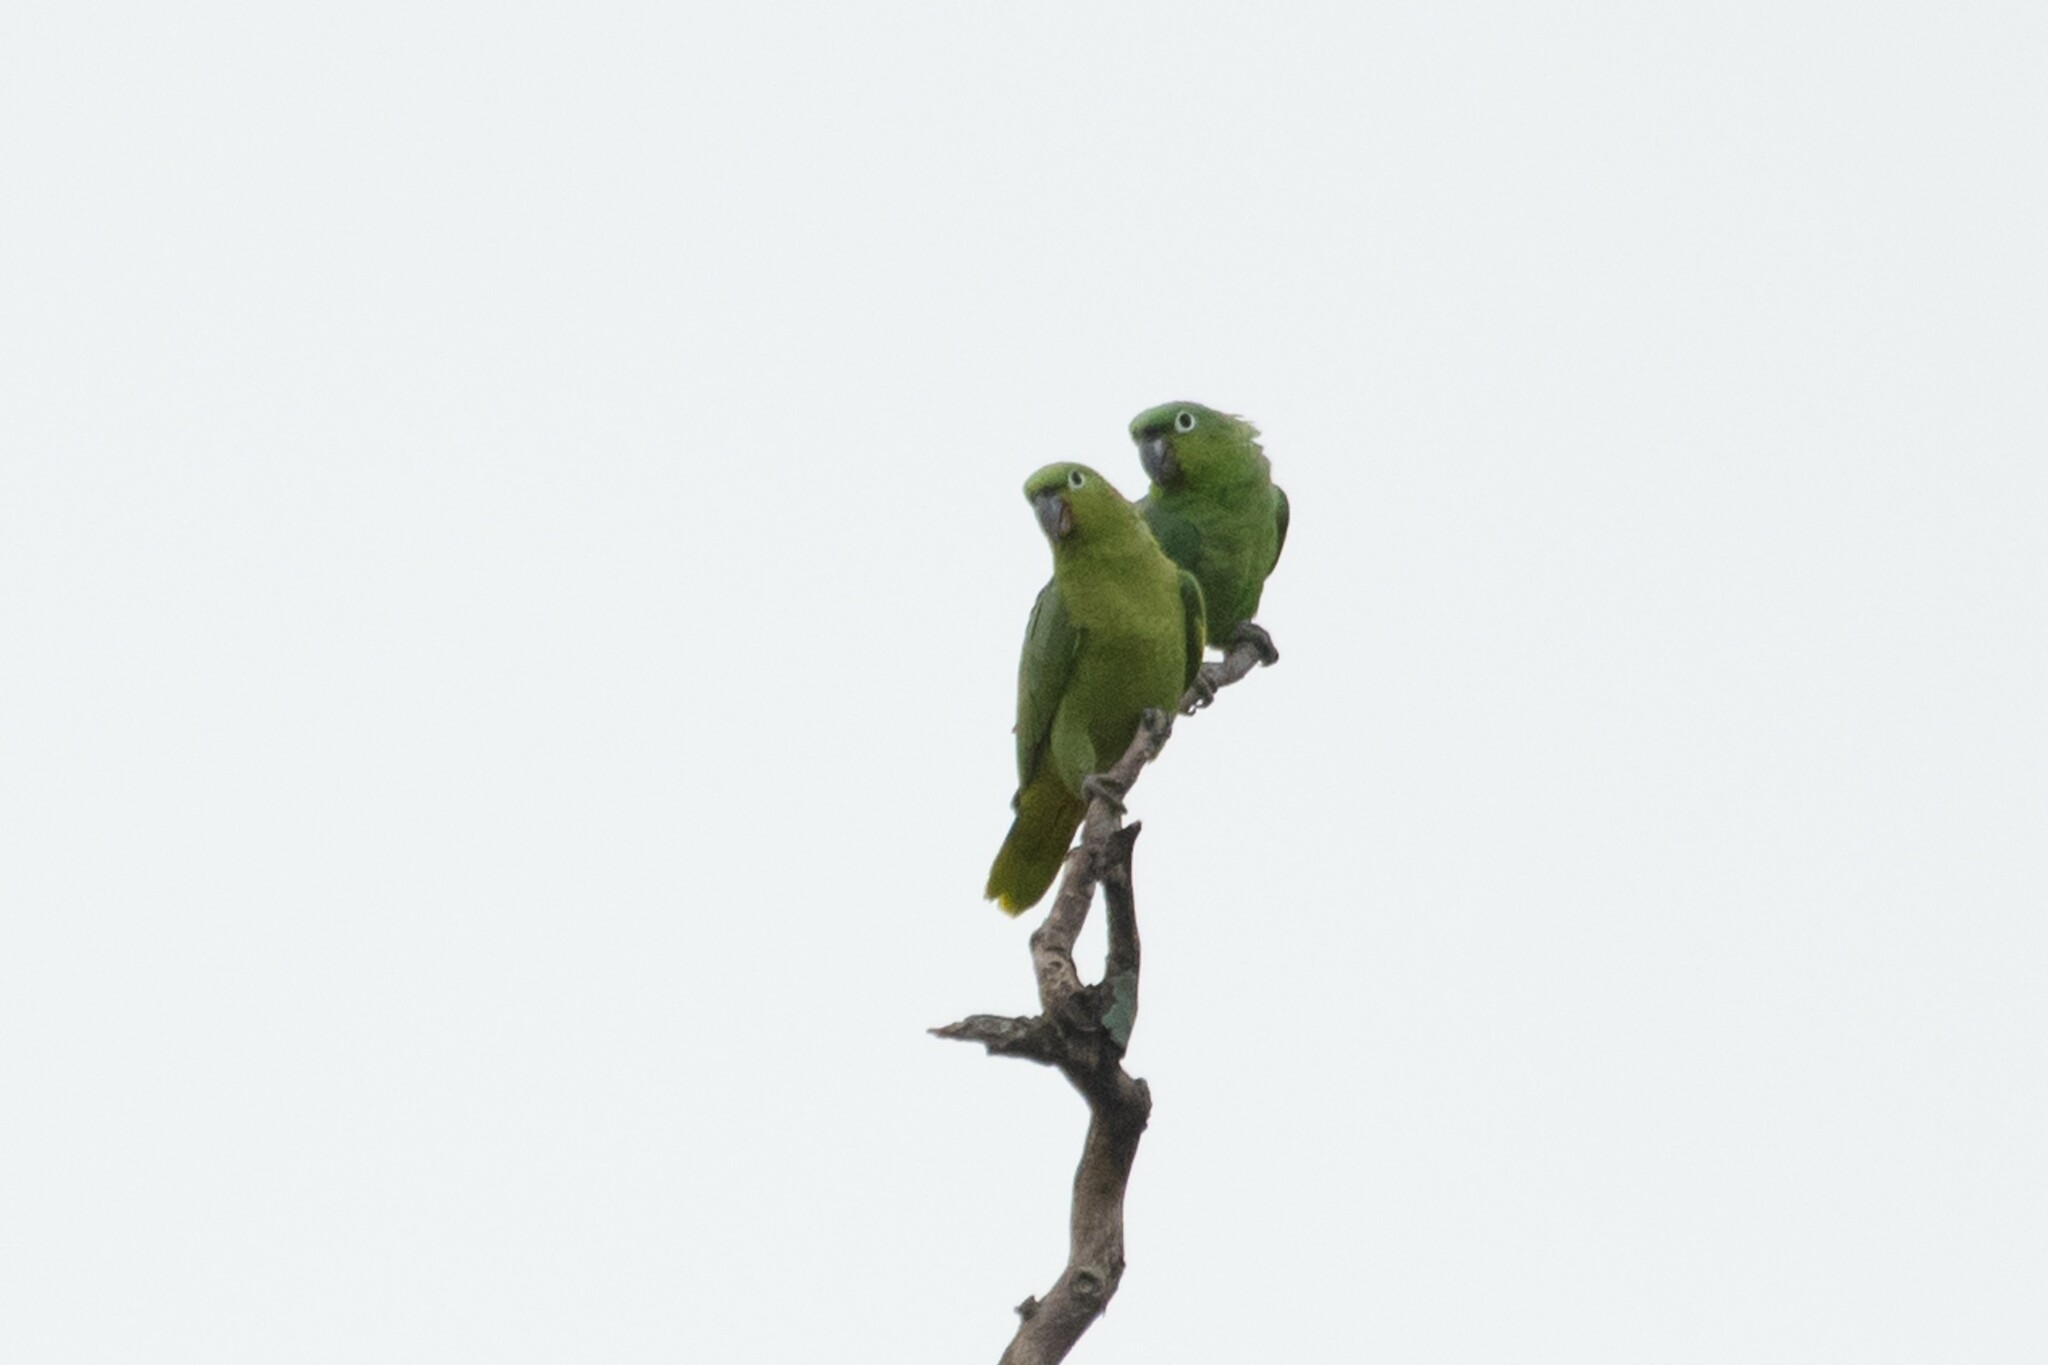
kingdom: Animalia
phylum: Chordata
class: Aves
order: Psittaciformes
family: Psittacidae
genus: Amazona
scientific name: Amazona farinosa
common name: Mealy parrot
